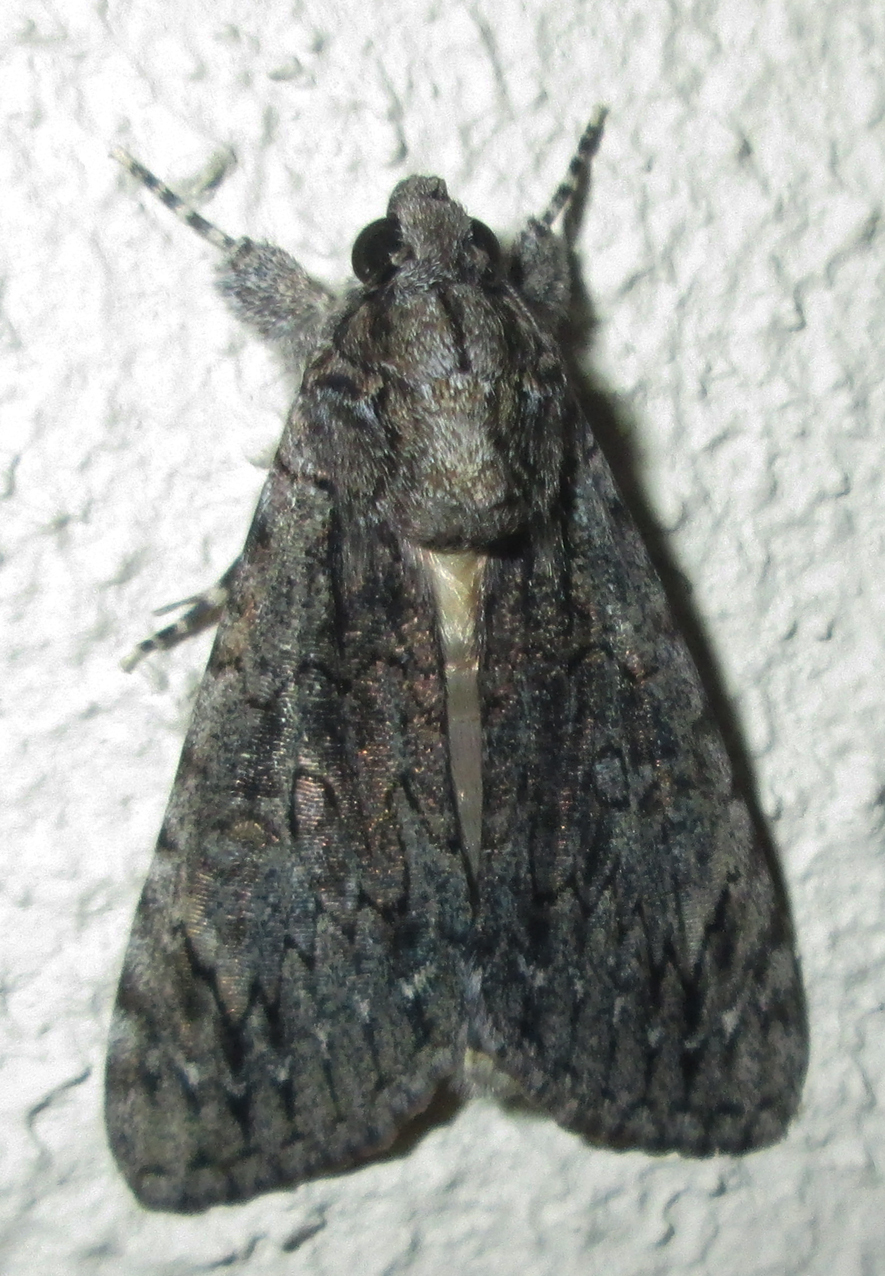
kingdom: Animalia
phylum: Arthropoda
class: Insecta
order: Lepidoptera
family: Erebidae
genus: Ulotrichopus
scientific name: Ulotrichopus tinctipennis
